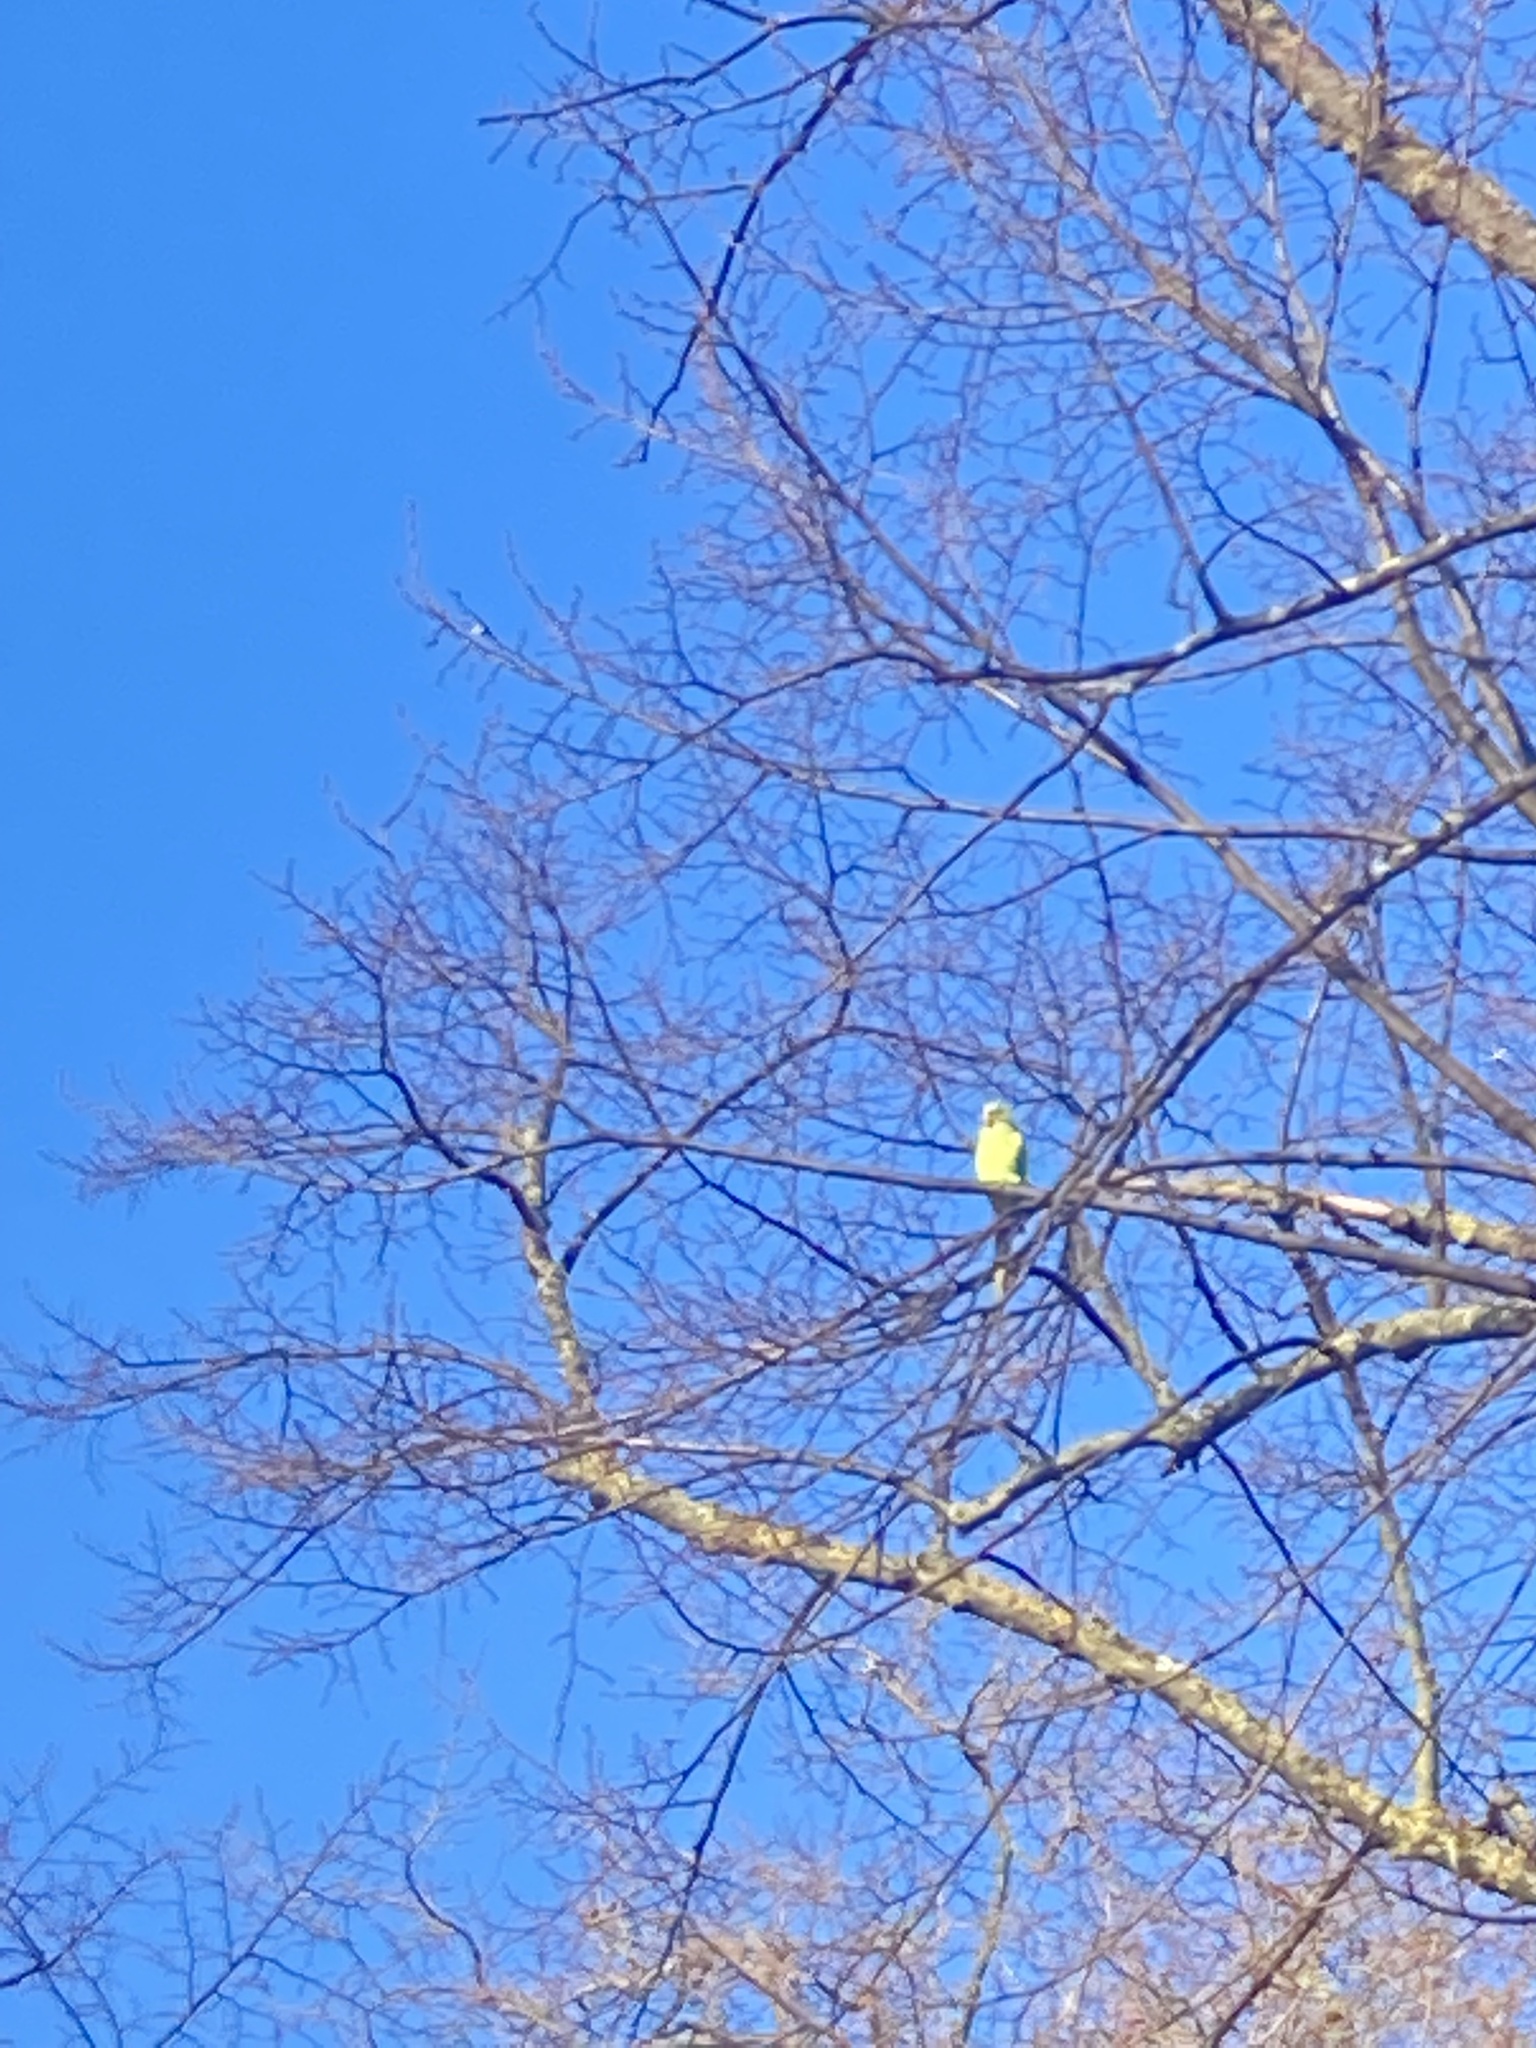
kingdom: Animalia
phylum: Chordata
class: Aves
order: Psittaciformes
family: Psittacidae
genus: Psittacula
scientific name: Psittacula krameri
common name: Rose-ringed parakeet
